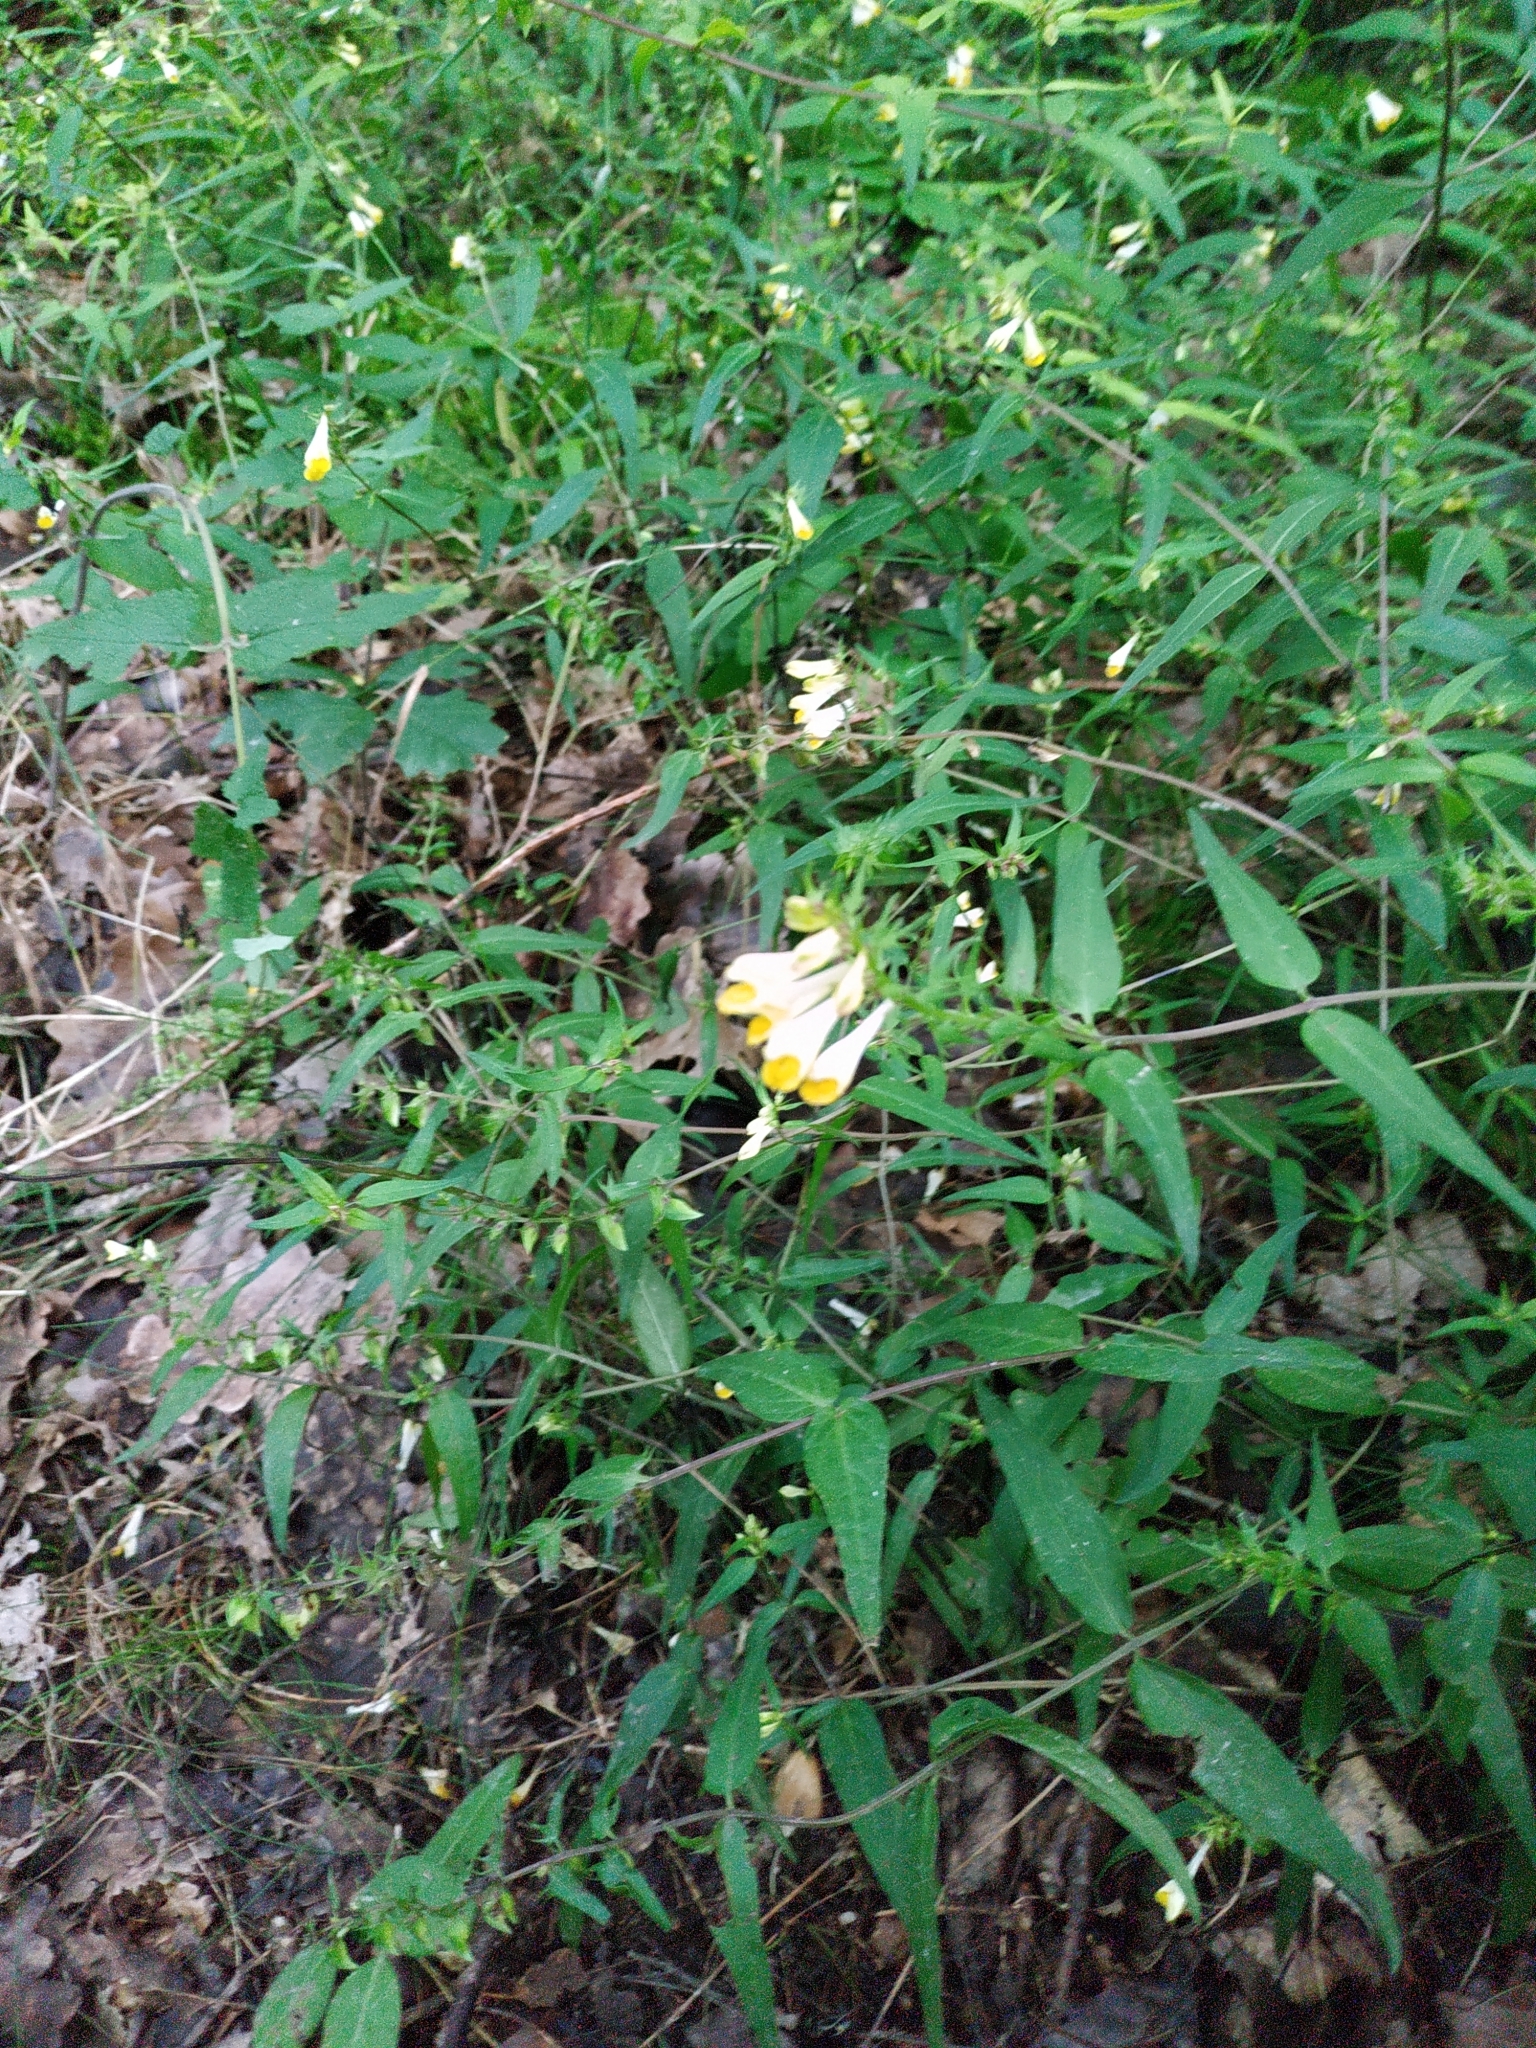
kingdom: Plantae
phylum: Tracheophyta
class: Magnoliopsida
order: Lamiales
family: Orobanchaceae
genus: Melampyrum
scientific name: Melampyrum pratense
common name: Common cow-wheat
